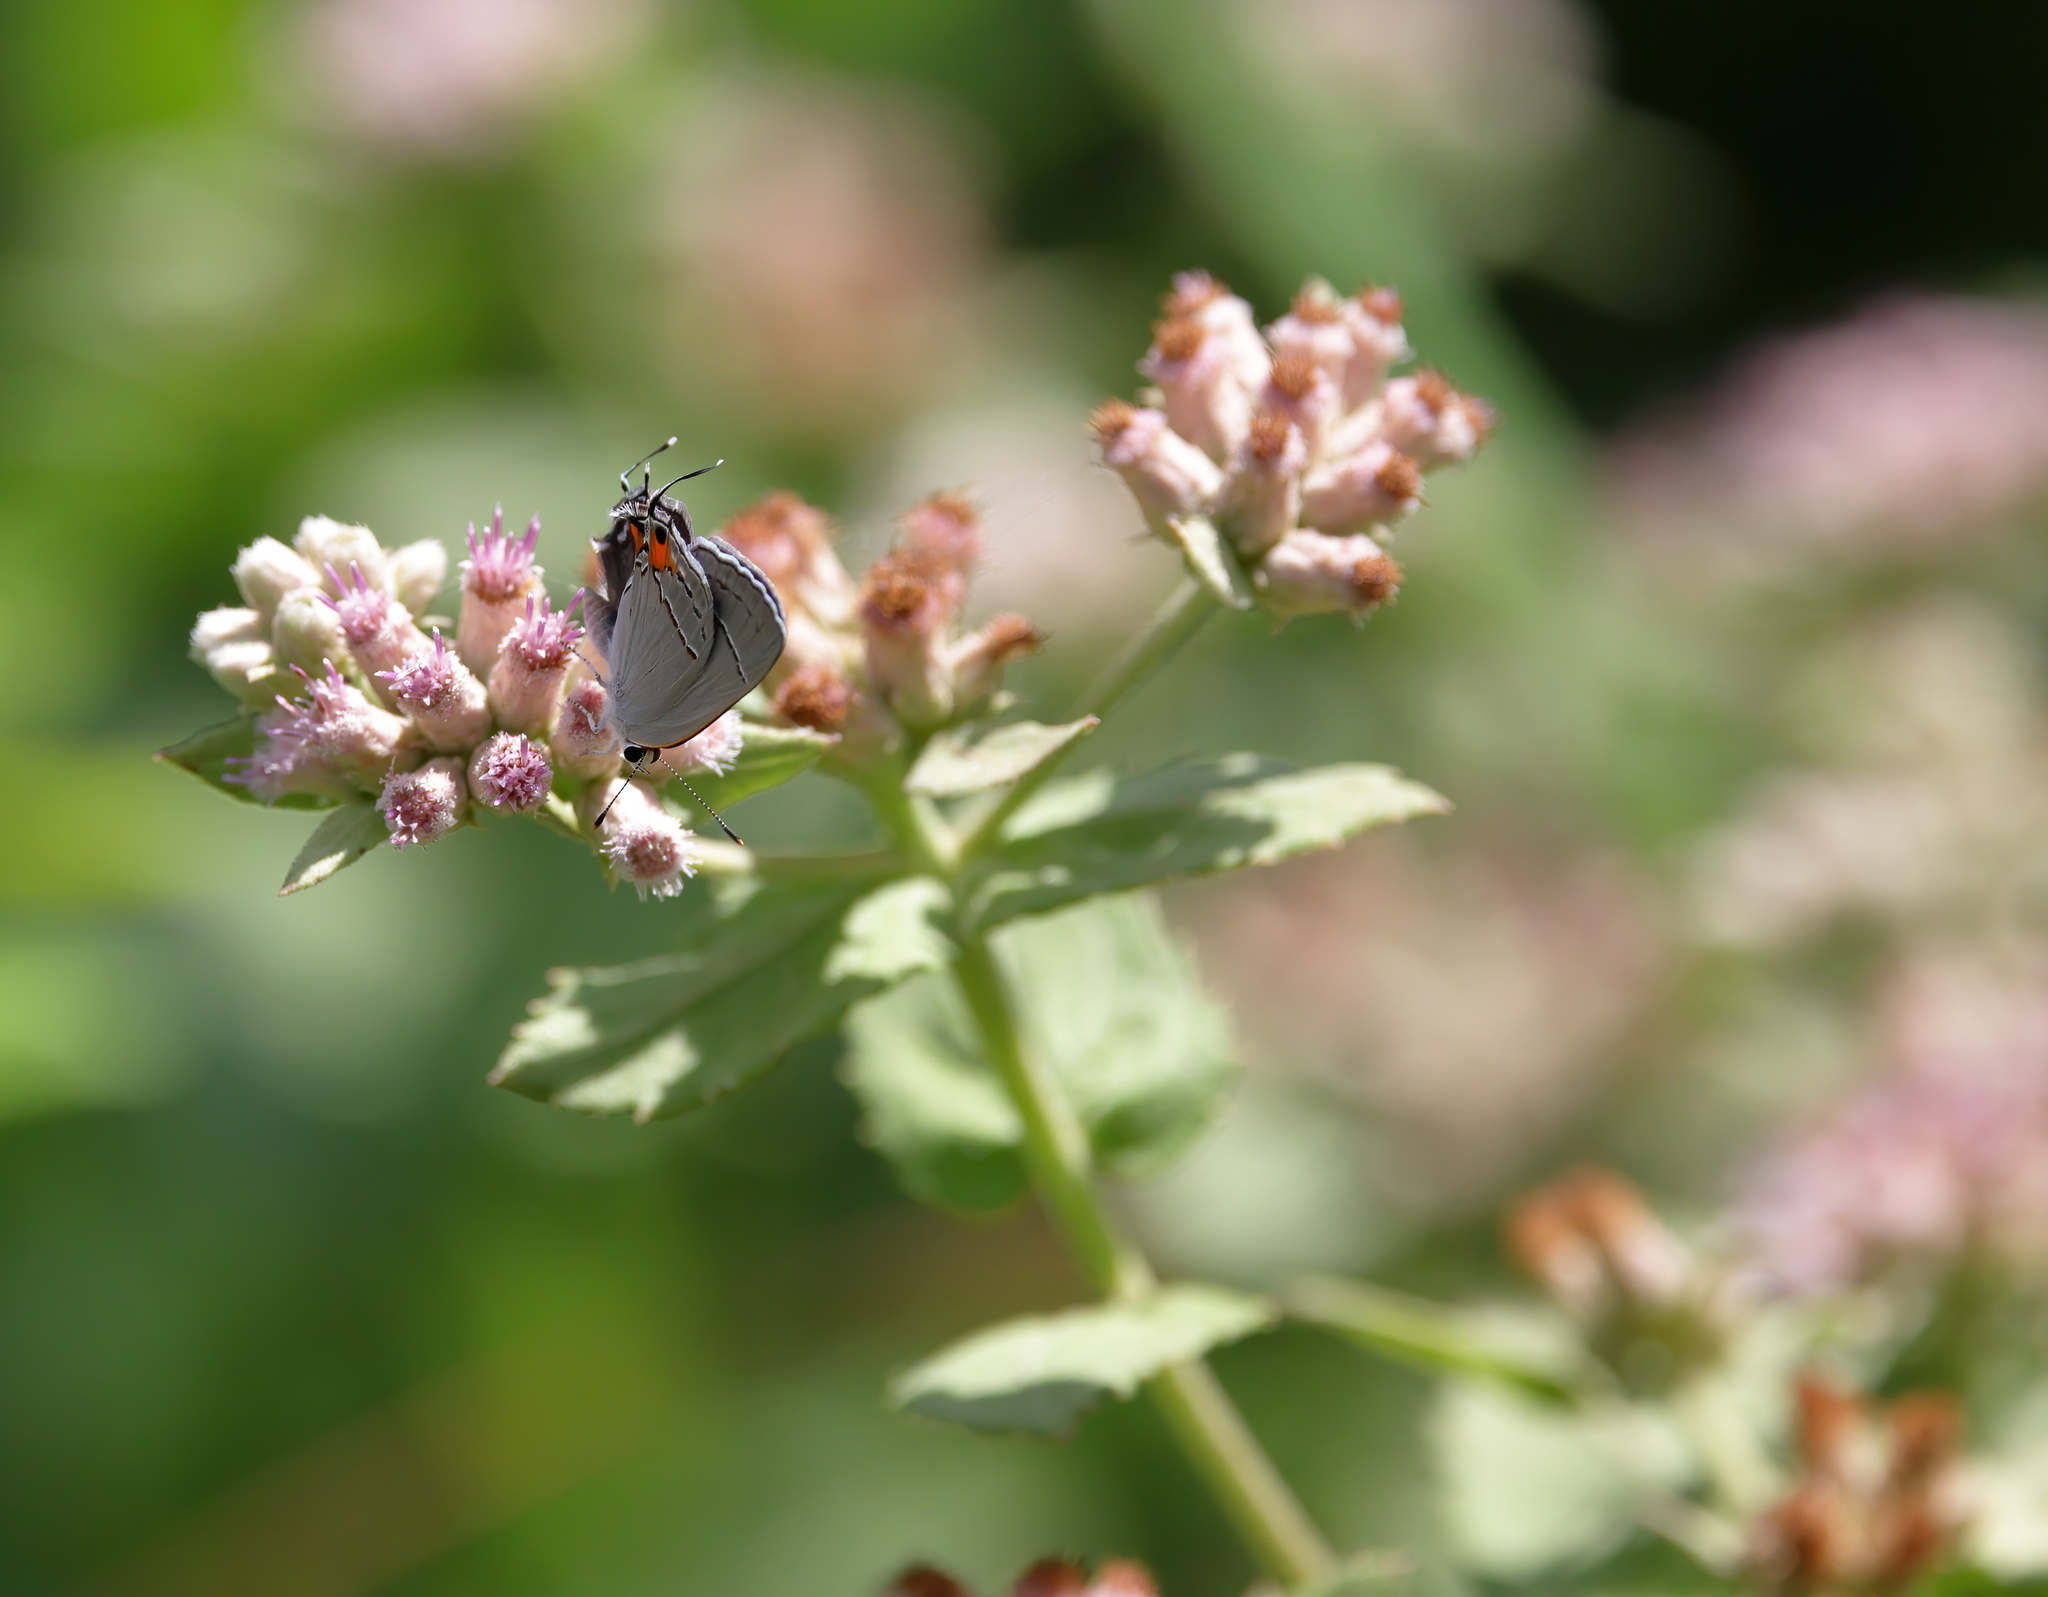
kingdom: Plantae
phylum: Tracheophyta
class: Magnoliopsida
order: Asterales
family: Asteraceae
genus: Pluchea
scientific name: Pluchea baccharis
